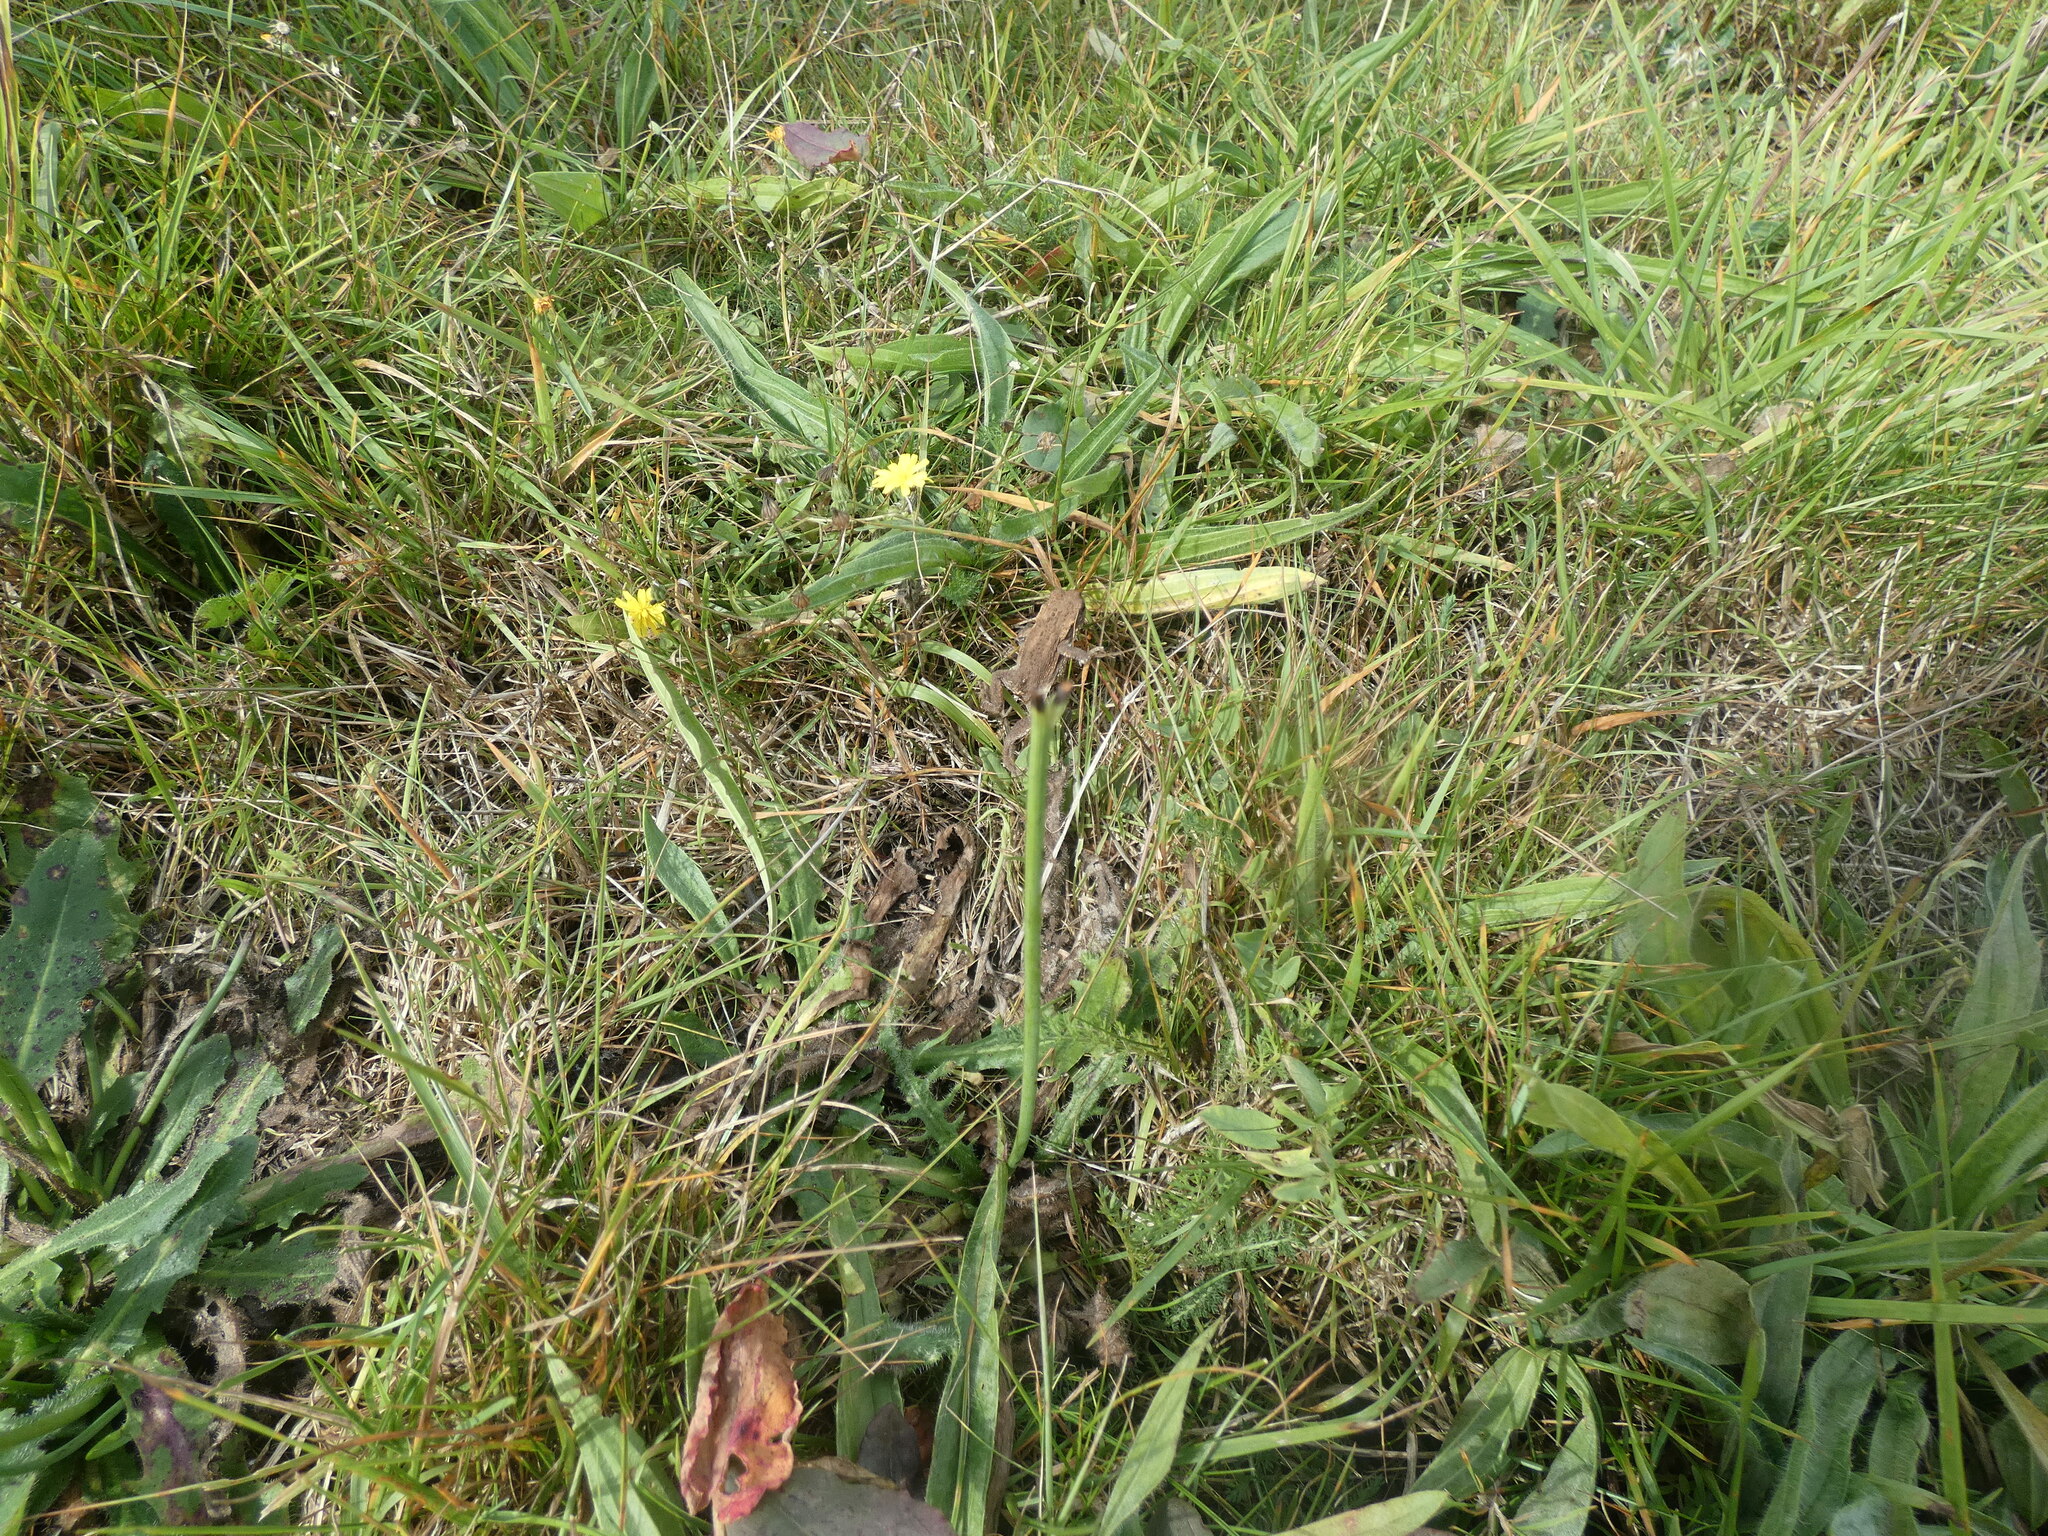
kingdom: Animalia
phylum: Chordata
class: Amphibia
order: Anura
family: Bufonidae
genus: Bufo
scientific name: Bufo spinosus
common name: Western common toad
